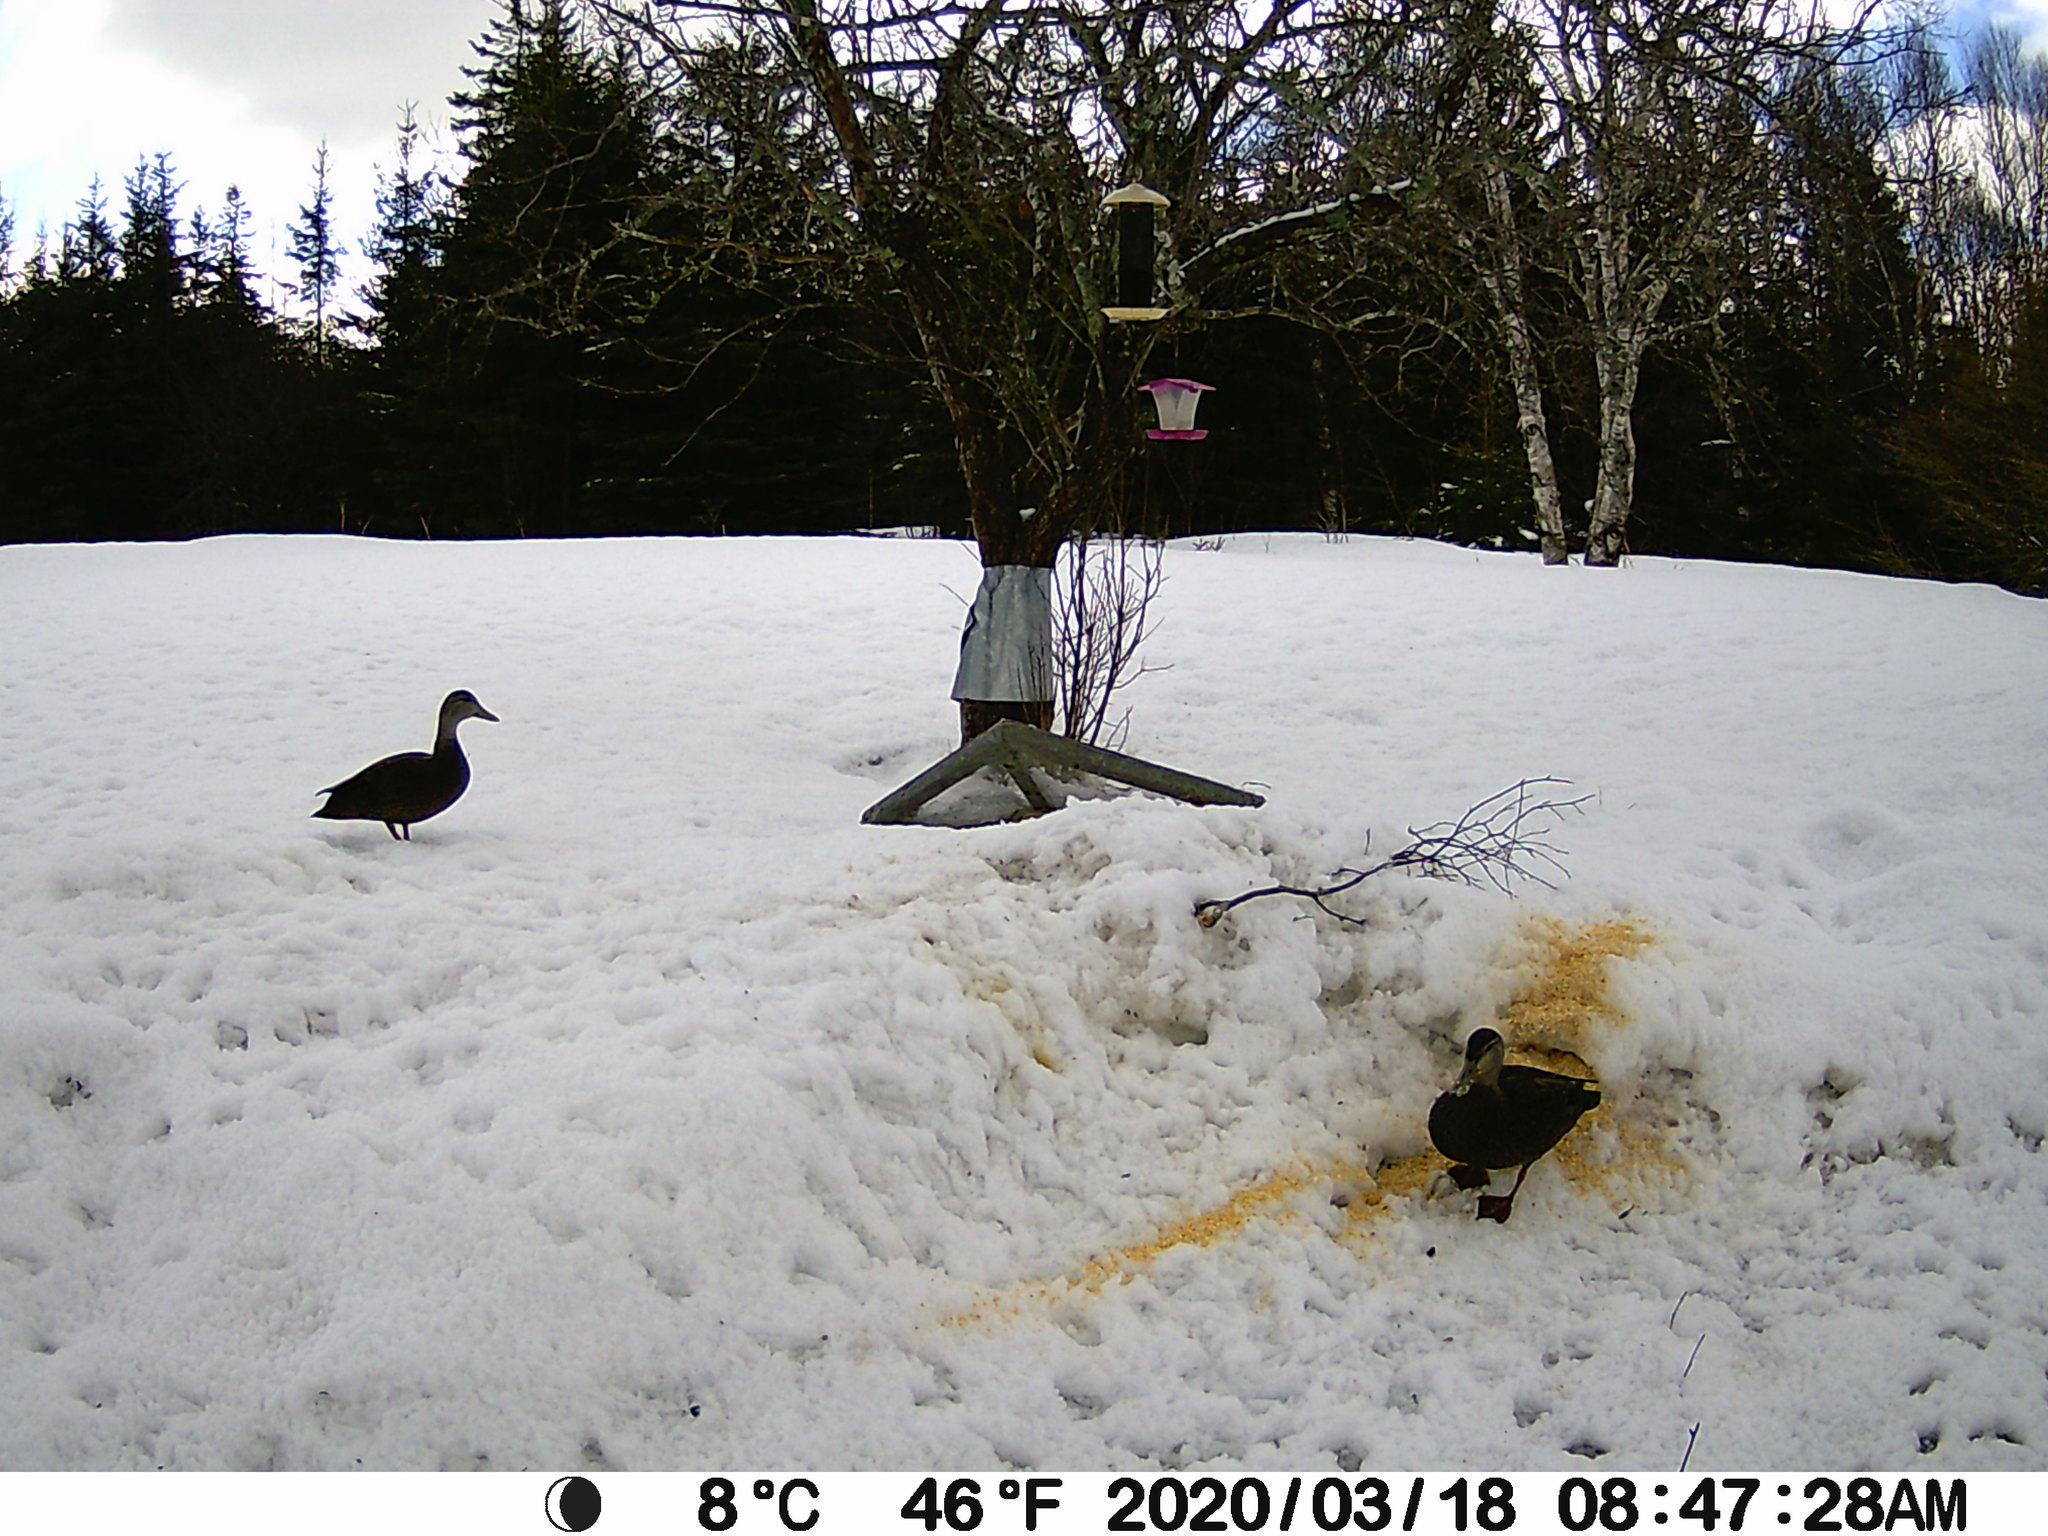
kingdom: Animalia
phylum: Chordata
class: Aves
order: Anseriformes
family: Anatidae
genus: Anas
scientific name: Anas rubripes
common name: American black duck
